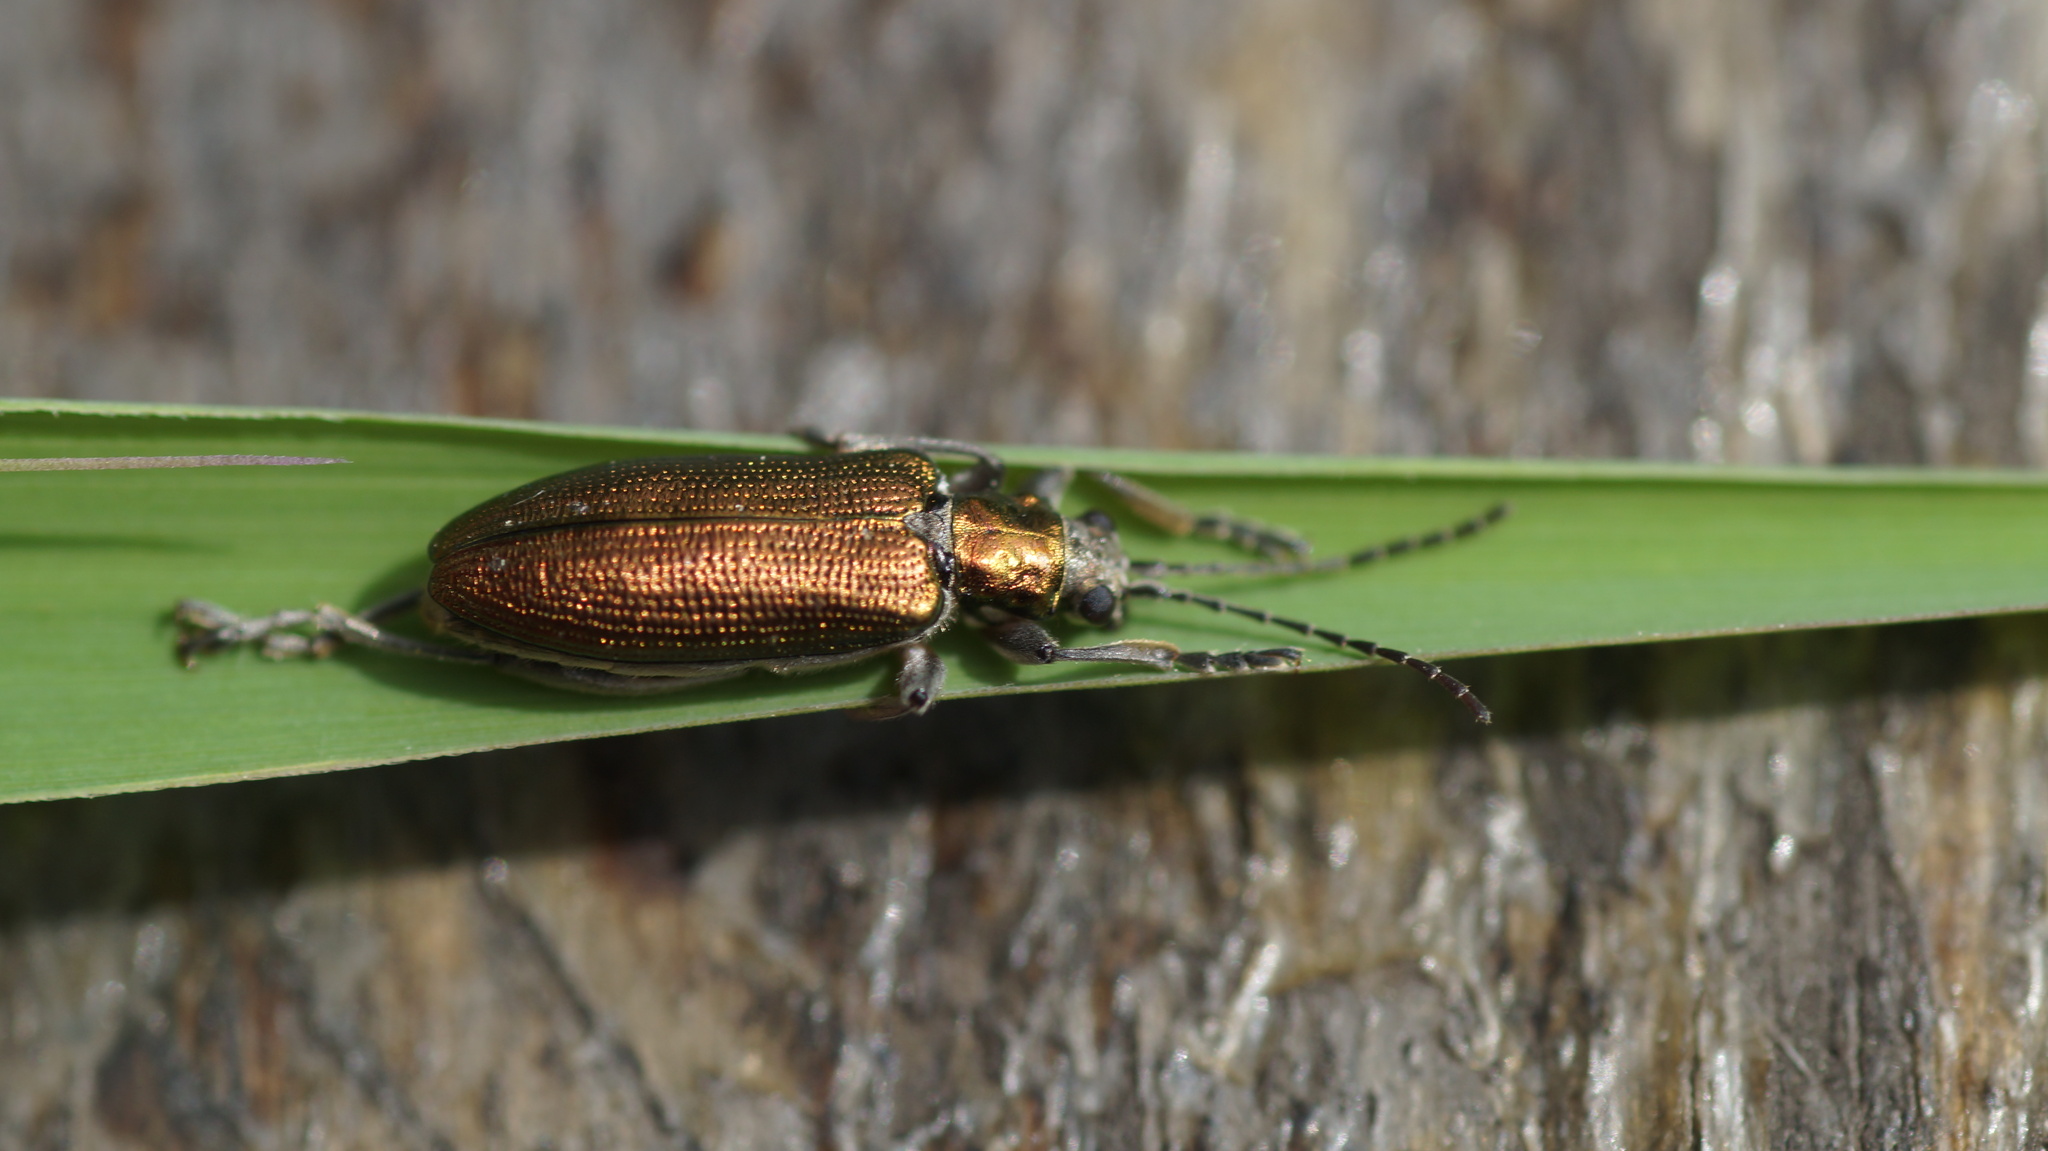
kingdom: Animalia
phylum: Arthropoda
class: Insecta
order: Coleoptera
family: Chrysomelidae
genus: Donacia
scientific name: Donacia semicuprea
